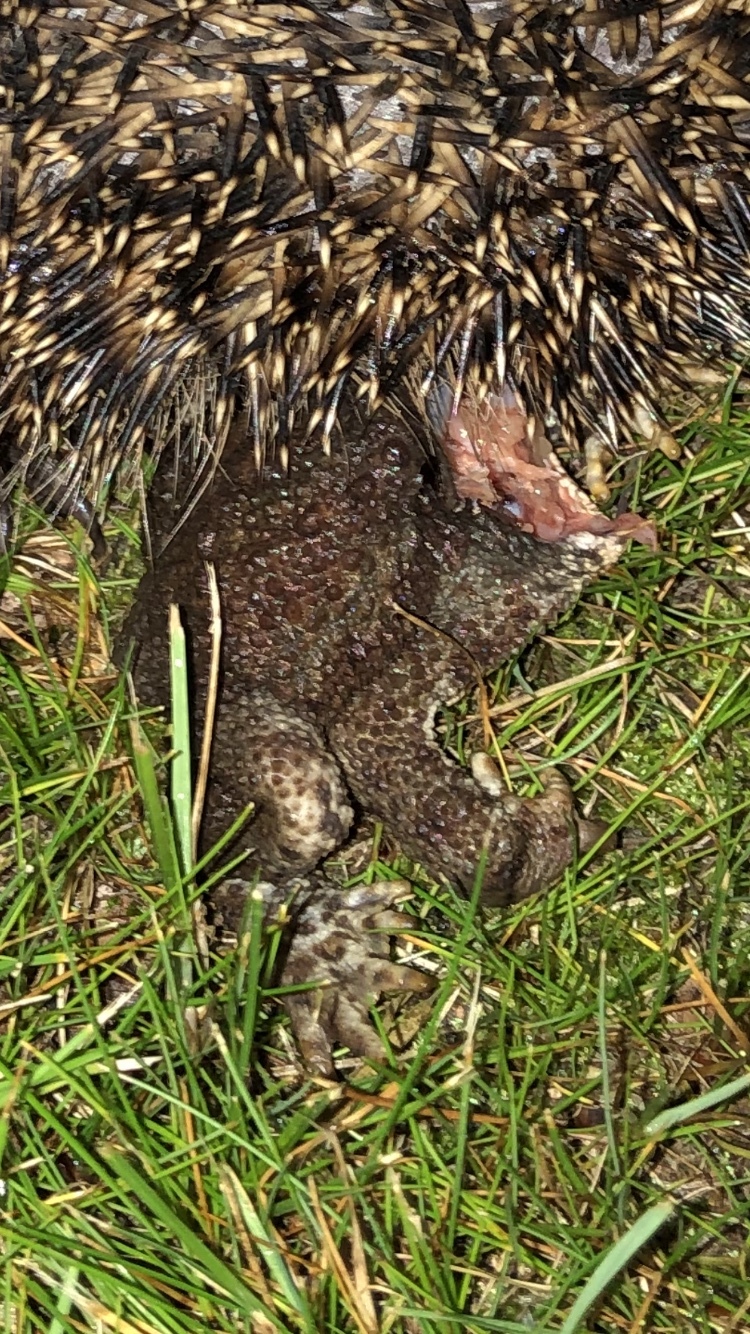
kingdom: Animalia
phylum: Chordata
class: Amphibia
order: Anura
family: Bufonidae
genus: Bufo
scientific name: Bufo bufo
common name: Common toad
